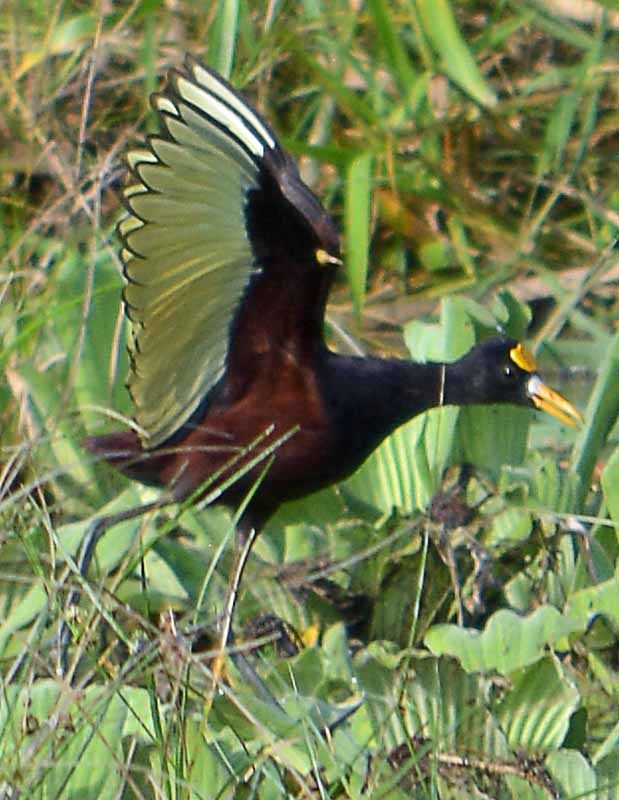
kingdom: Animalia
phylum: Chordata
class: Aves
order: Charadriiformes
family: Jacanidae
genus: Jacana
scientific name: Jacana spinosa
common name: Northern jacana
